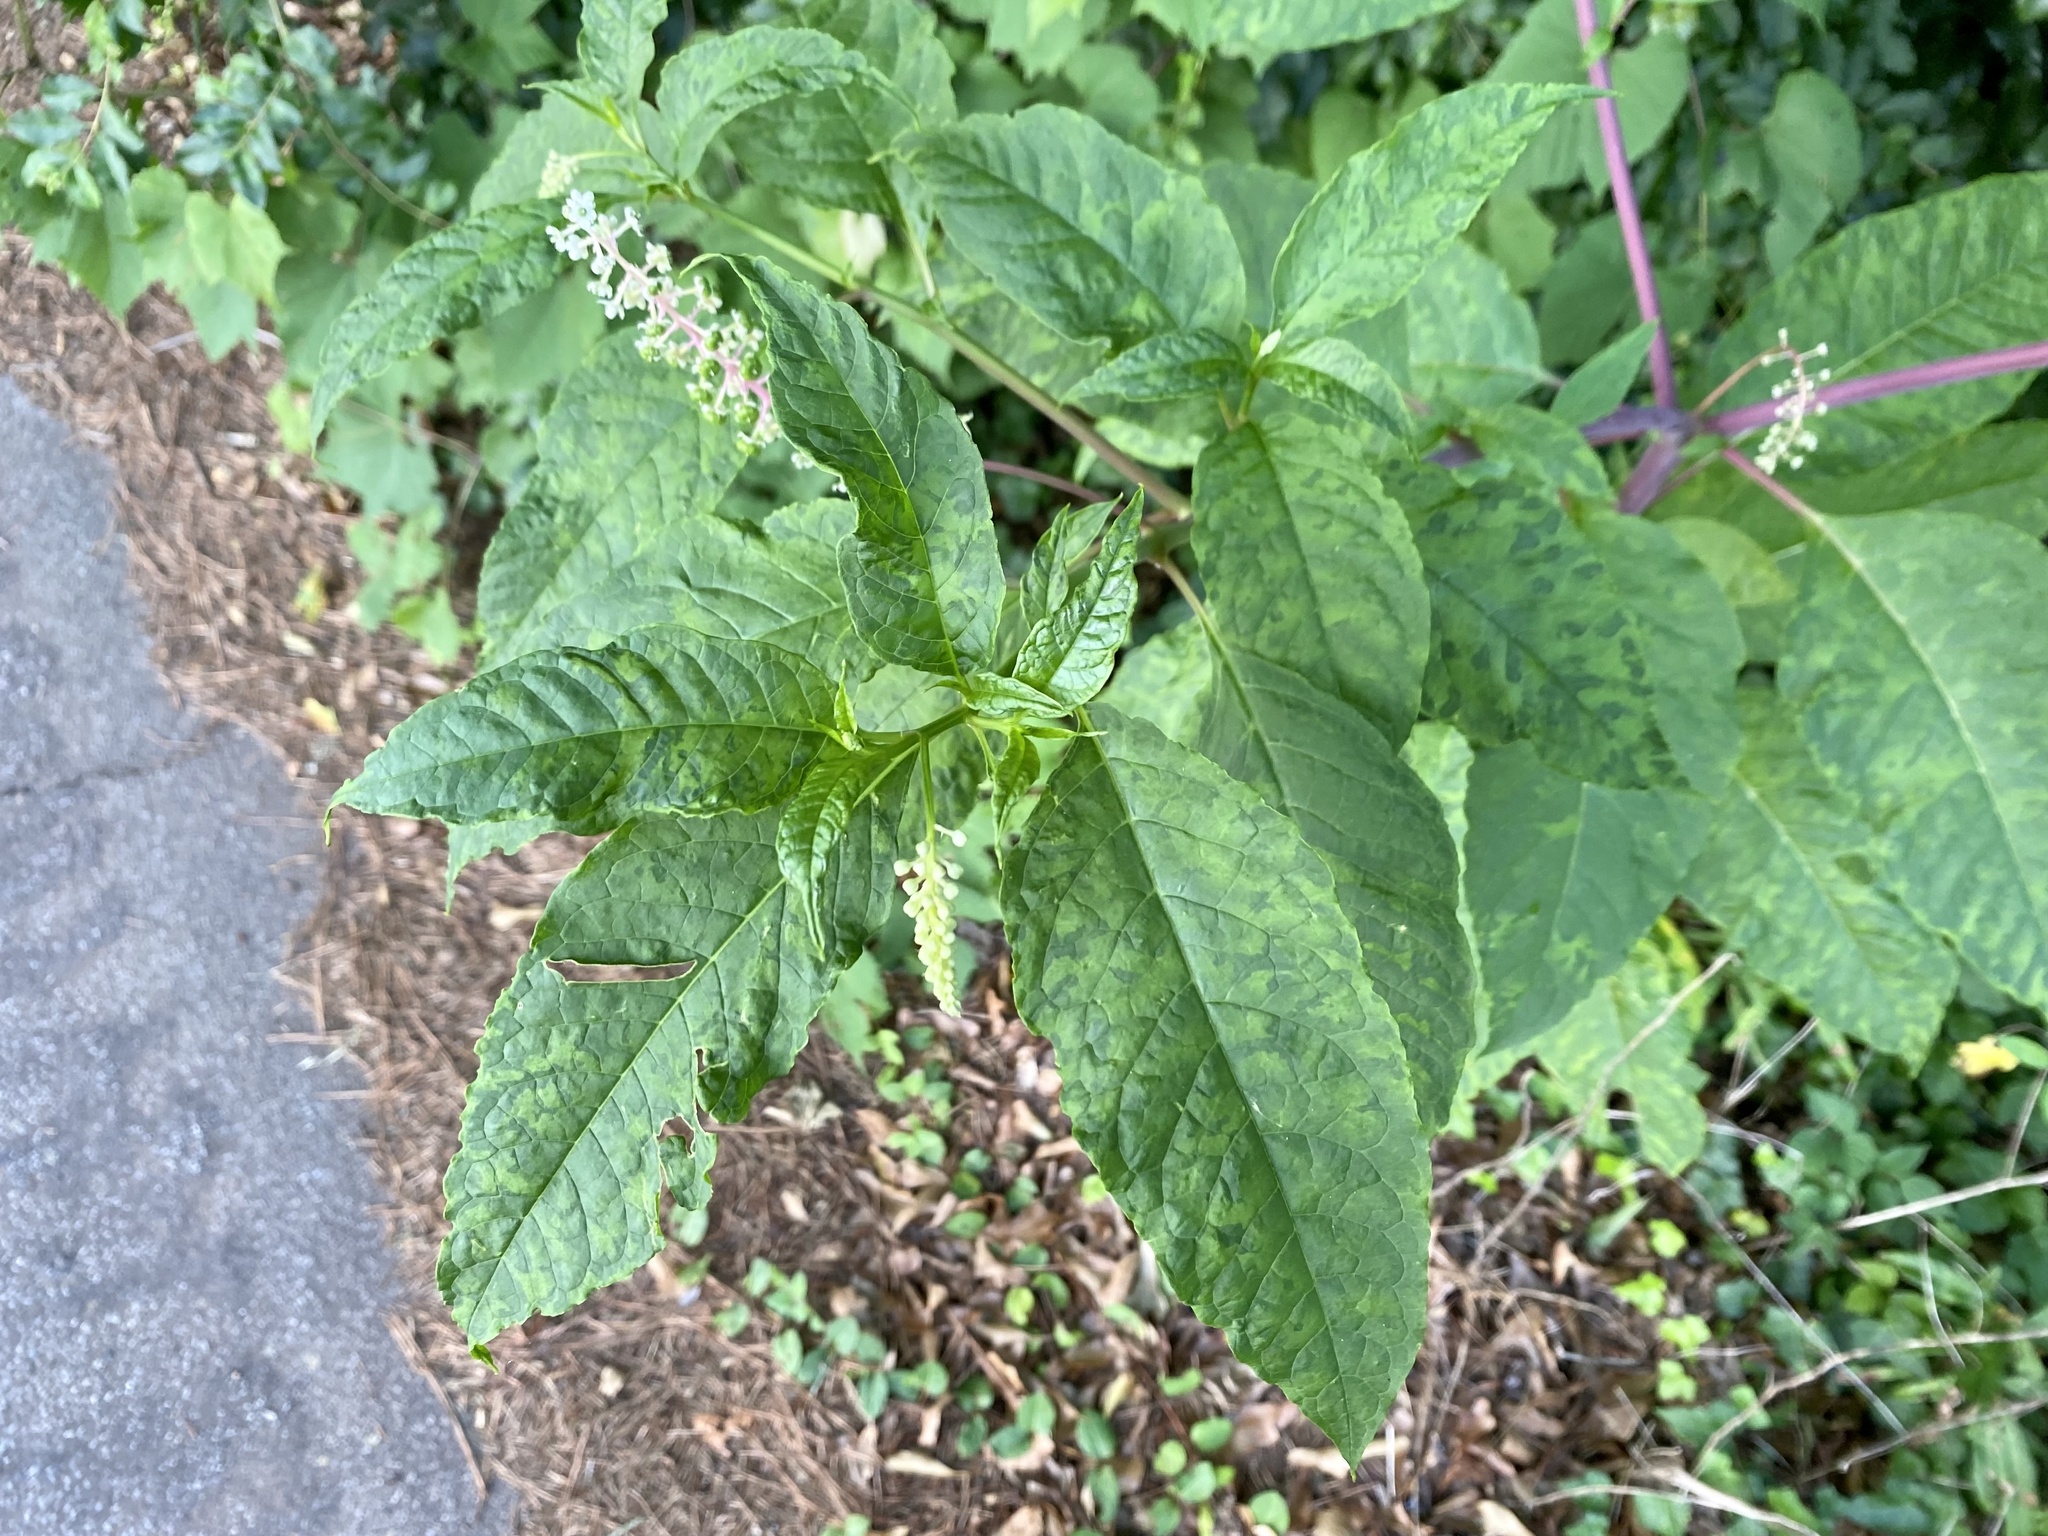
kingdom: Viruses
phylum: Pisuviricota
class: Stelpaviricetes
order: Patatavirales
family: Potyviridae
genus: Potyvirus
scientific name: Potyvirus Pokeweed mosaic virus
